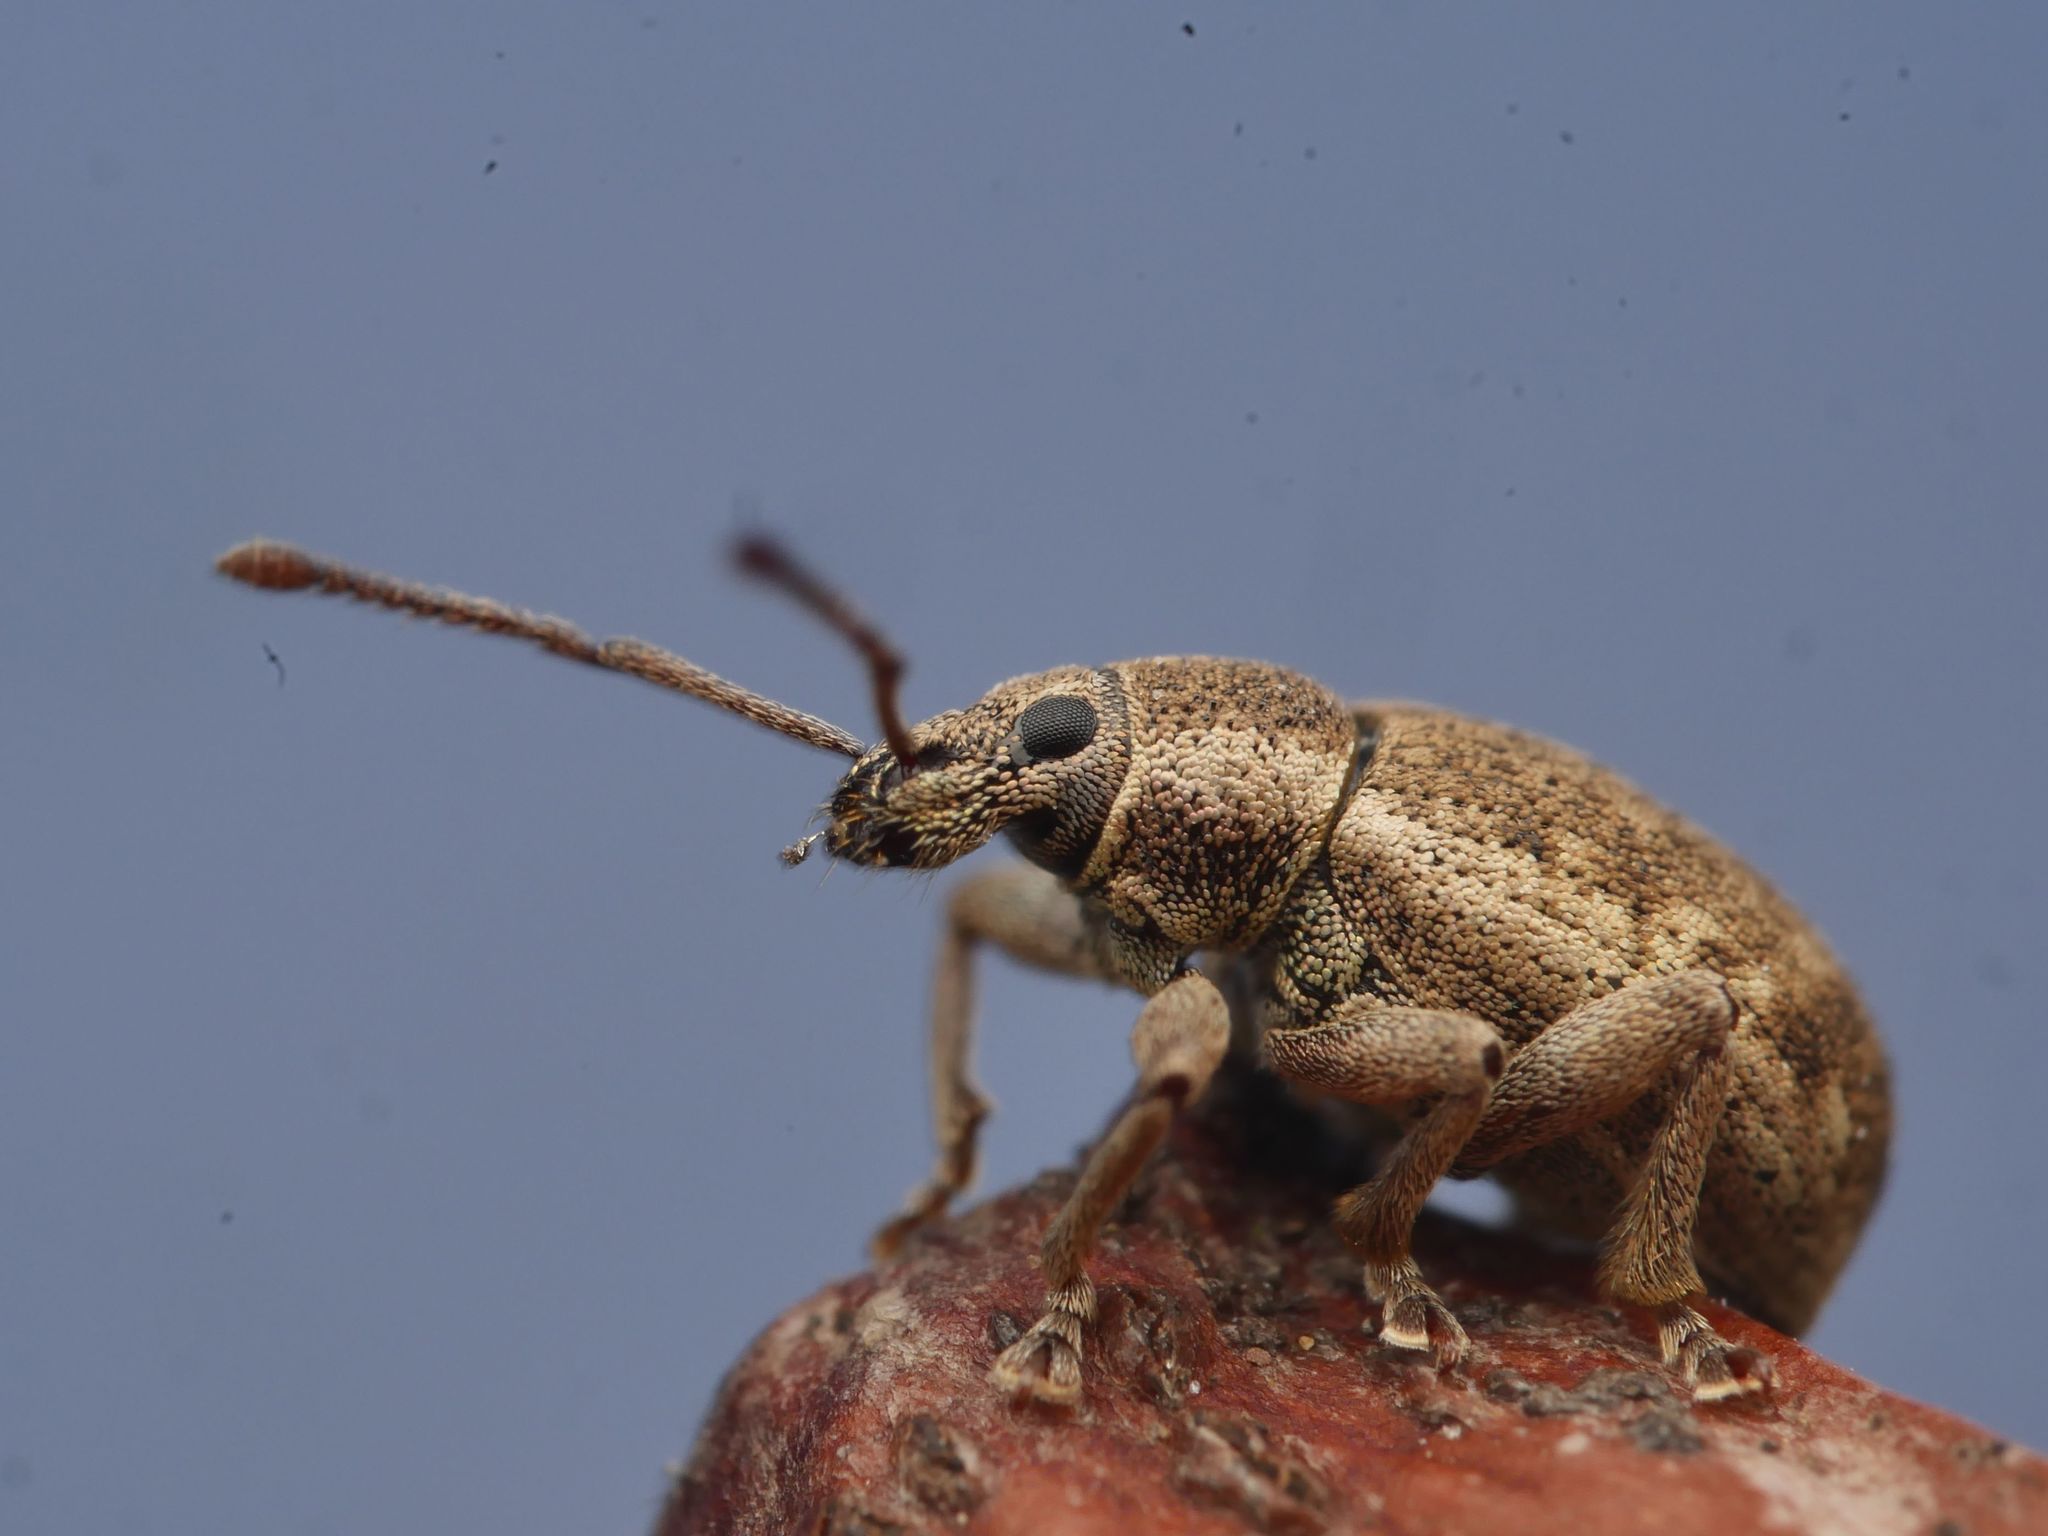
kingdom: Animalia
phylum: Arthropoda
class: Insecta
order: Coleoptera
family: Curculionidae
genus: Peritelus
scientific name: Peritelus sphaeroides
